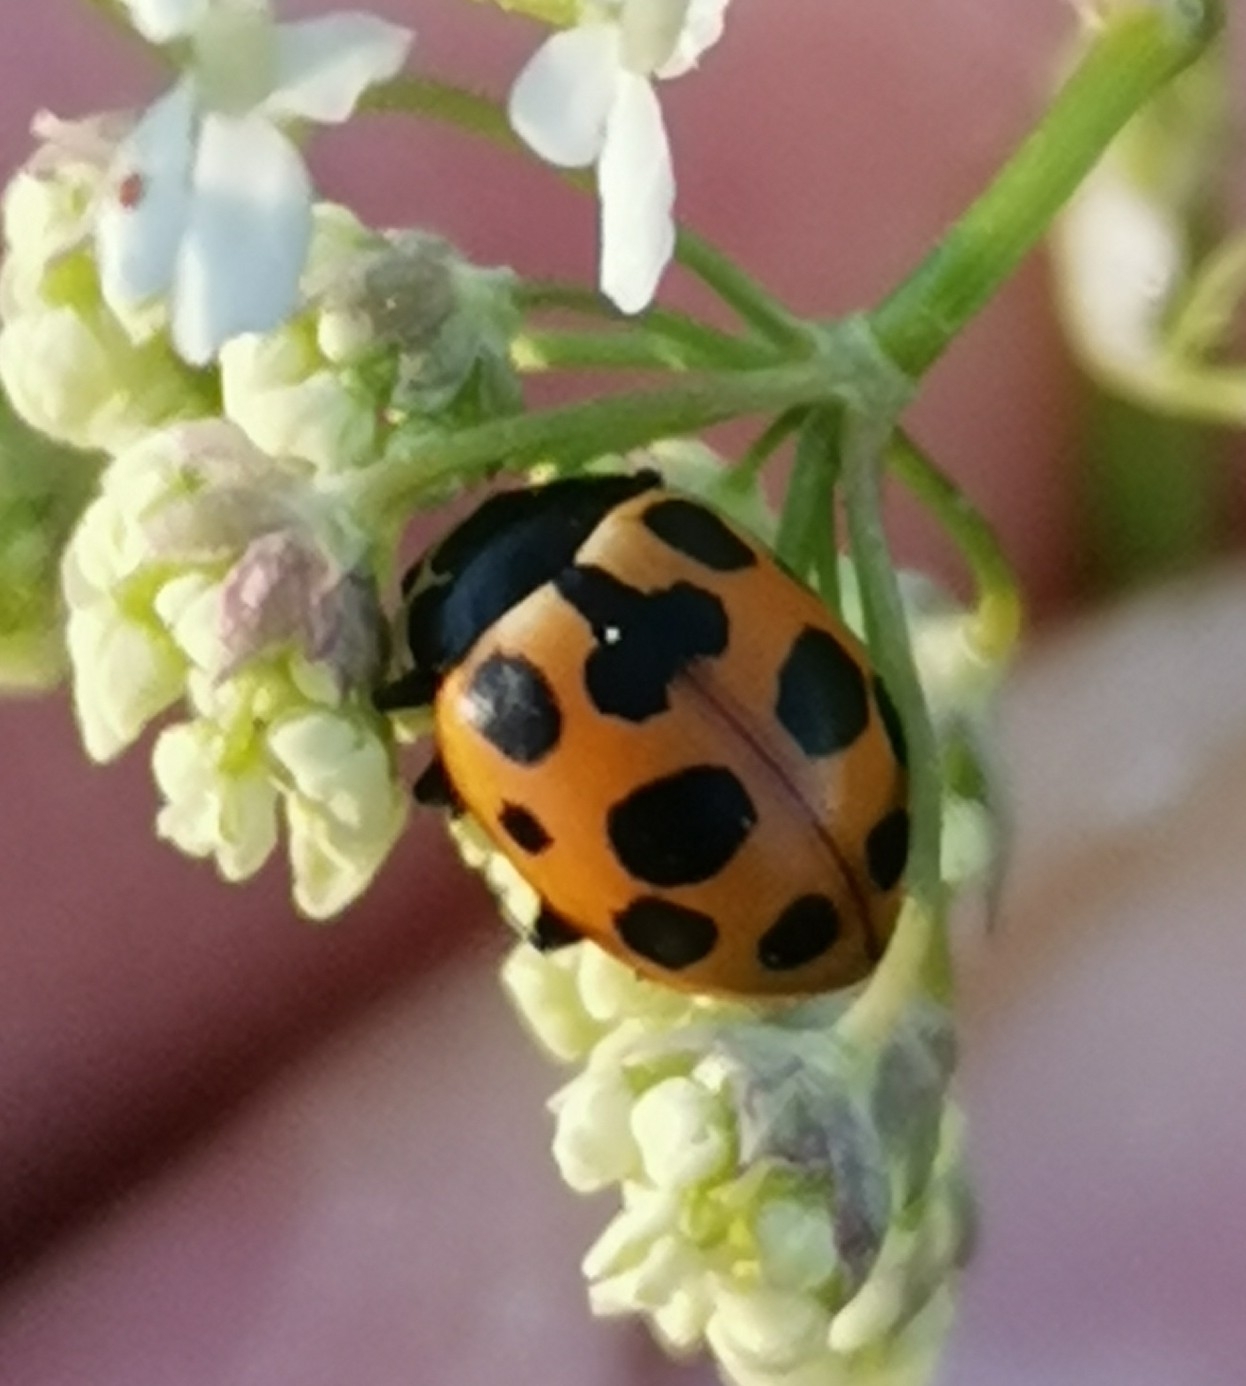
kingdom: Animalia
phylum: Arthropoda
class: Insecta
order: Coleoptera
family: Coccinellidae
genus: Ceratomegilla
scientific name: Ceratomegilla notata
